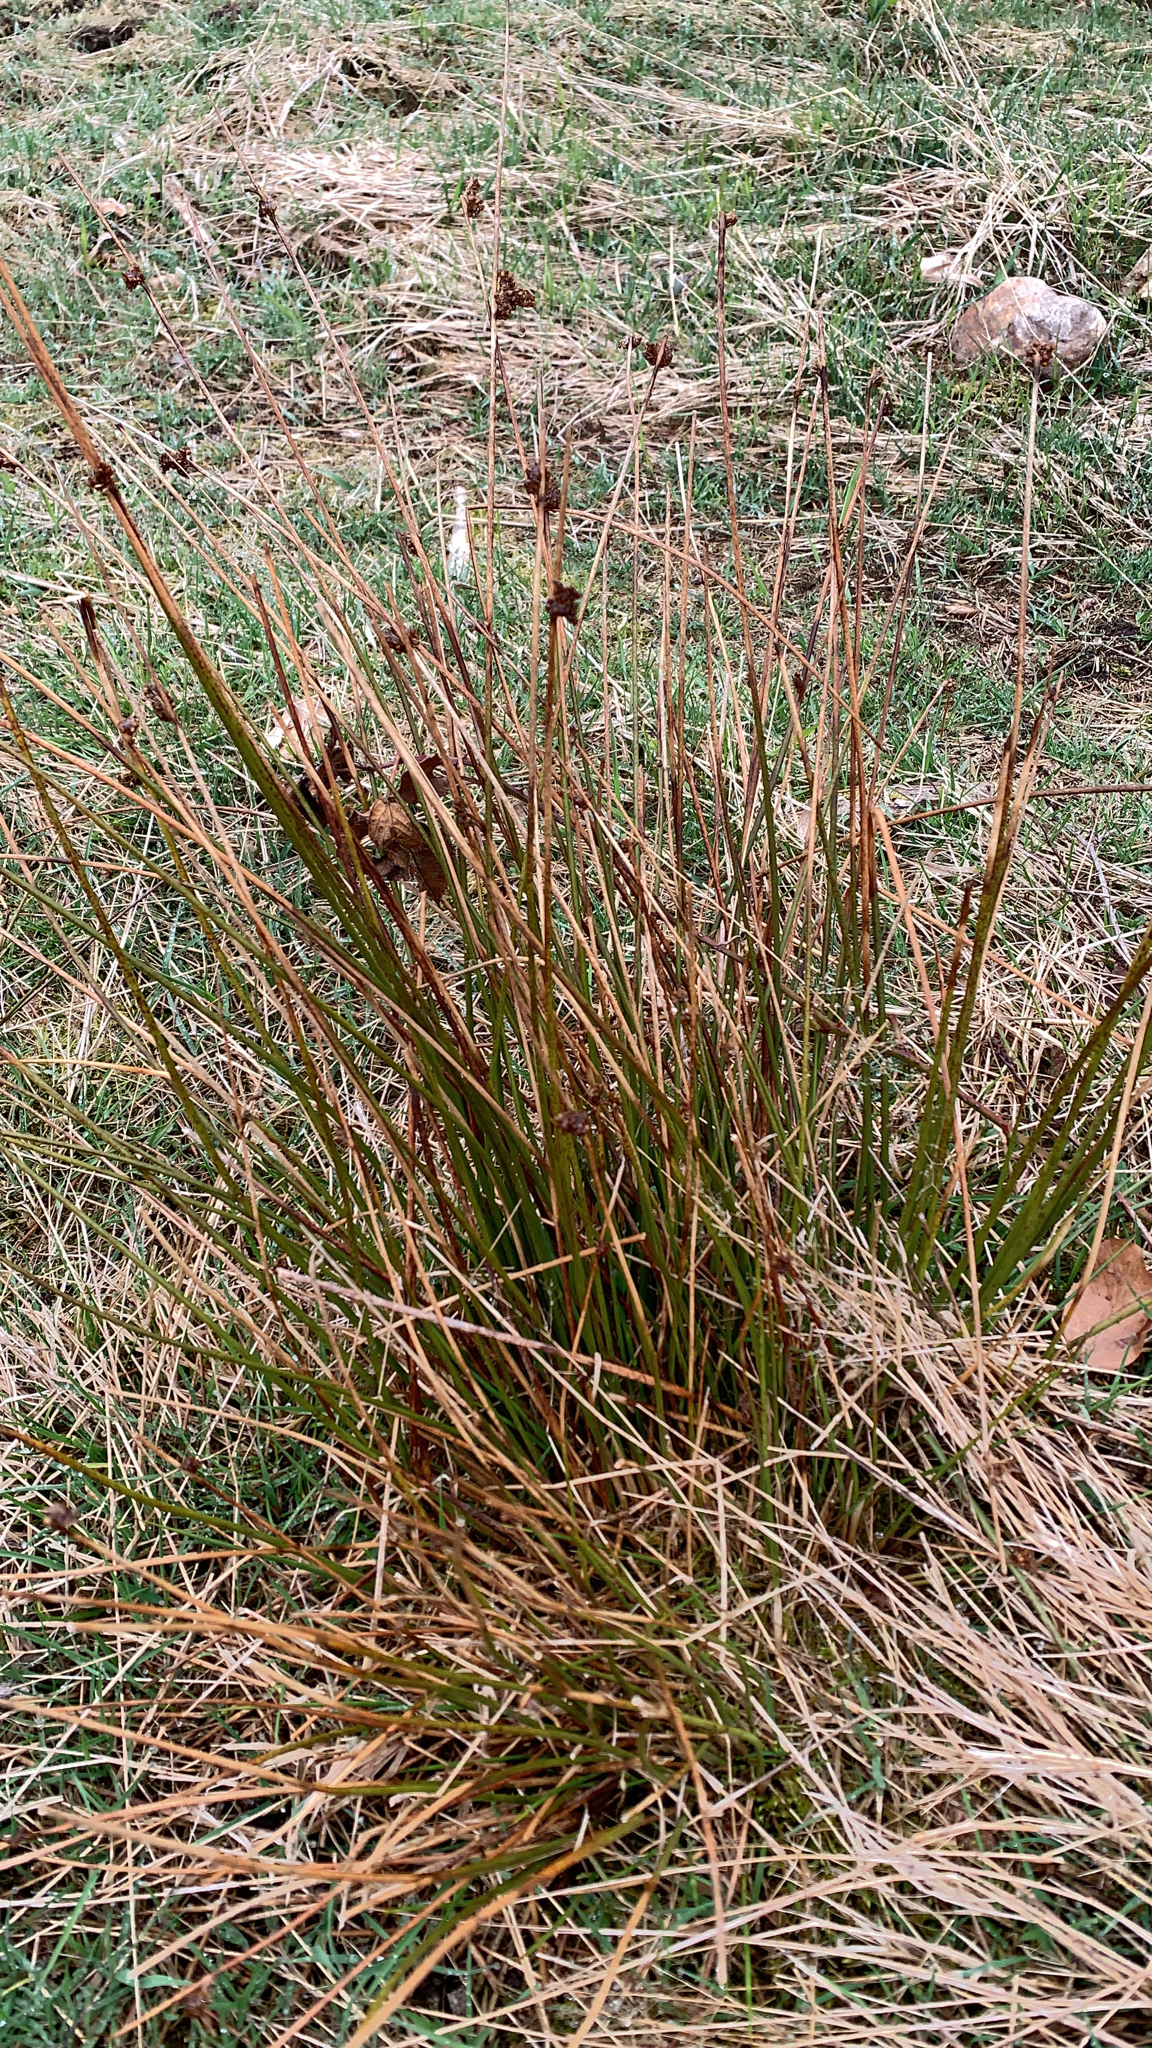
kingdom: Plantae
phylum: Tracheophyta
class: Liliopsida
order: Poales
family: Juncaceae
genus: Juncus
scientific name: Juncus effusus
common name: Soft rush
